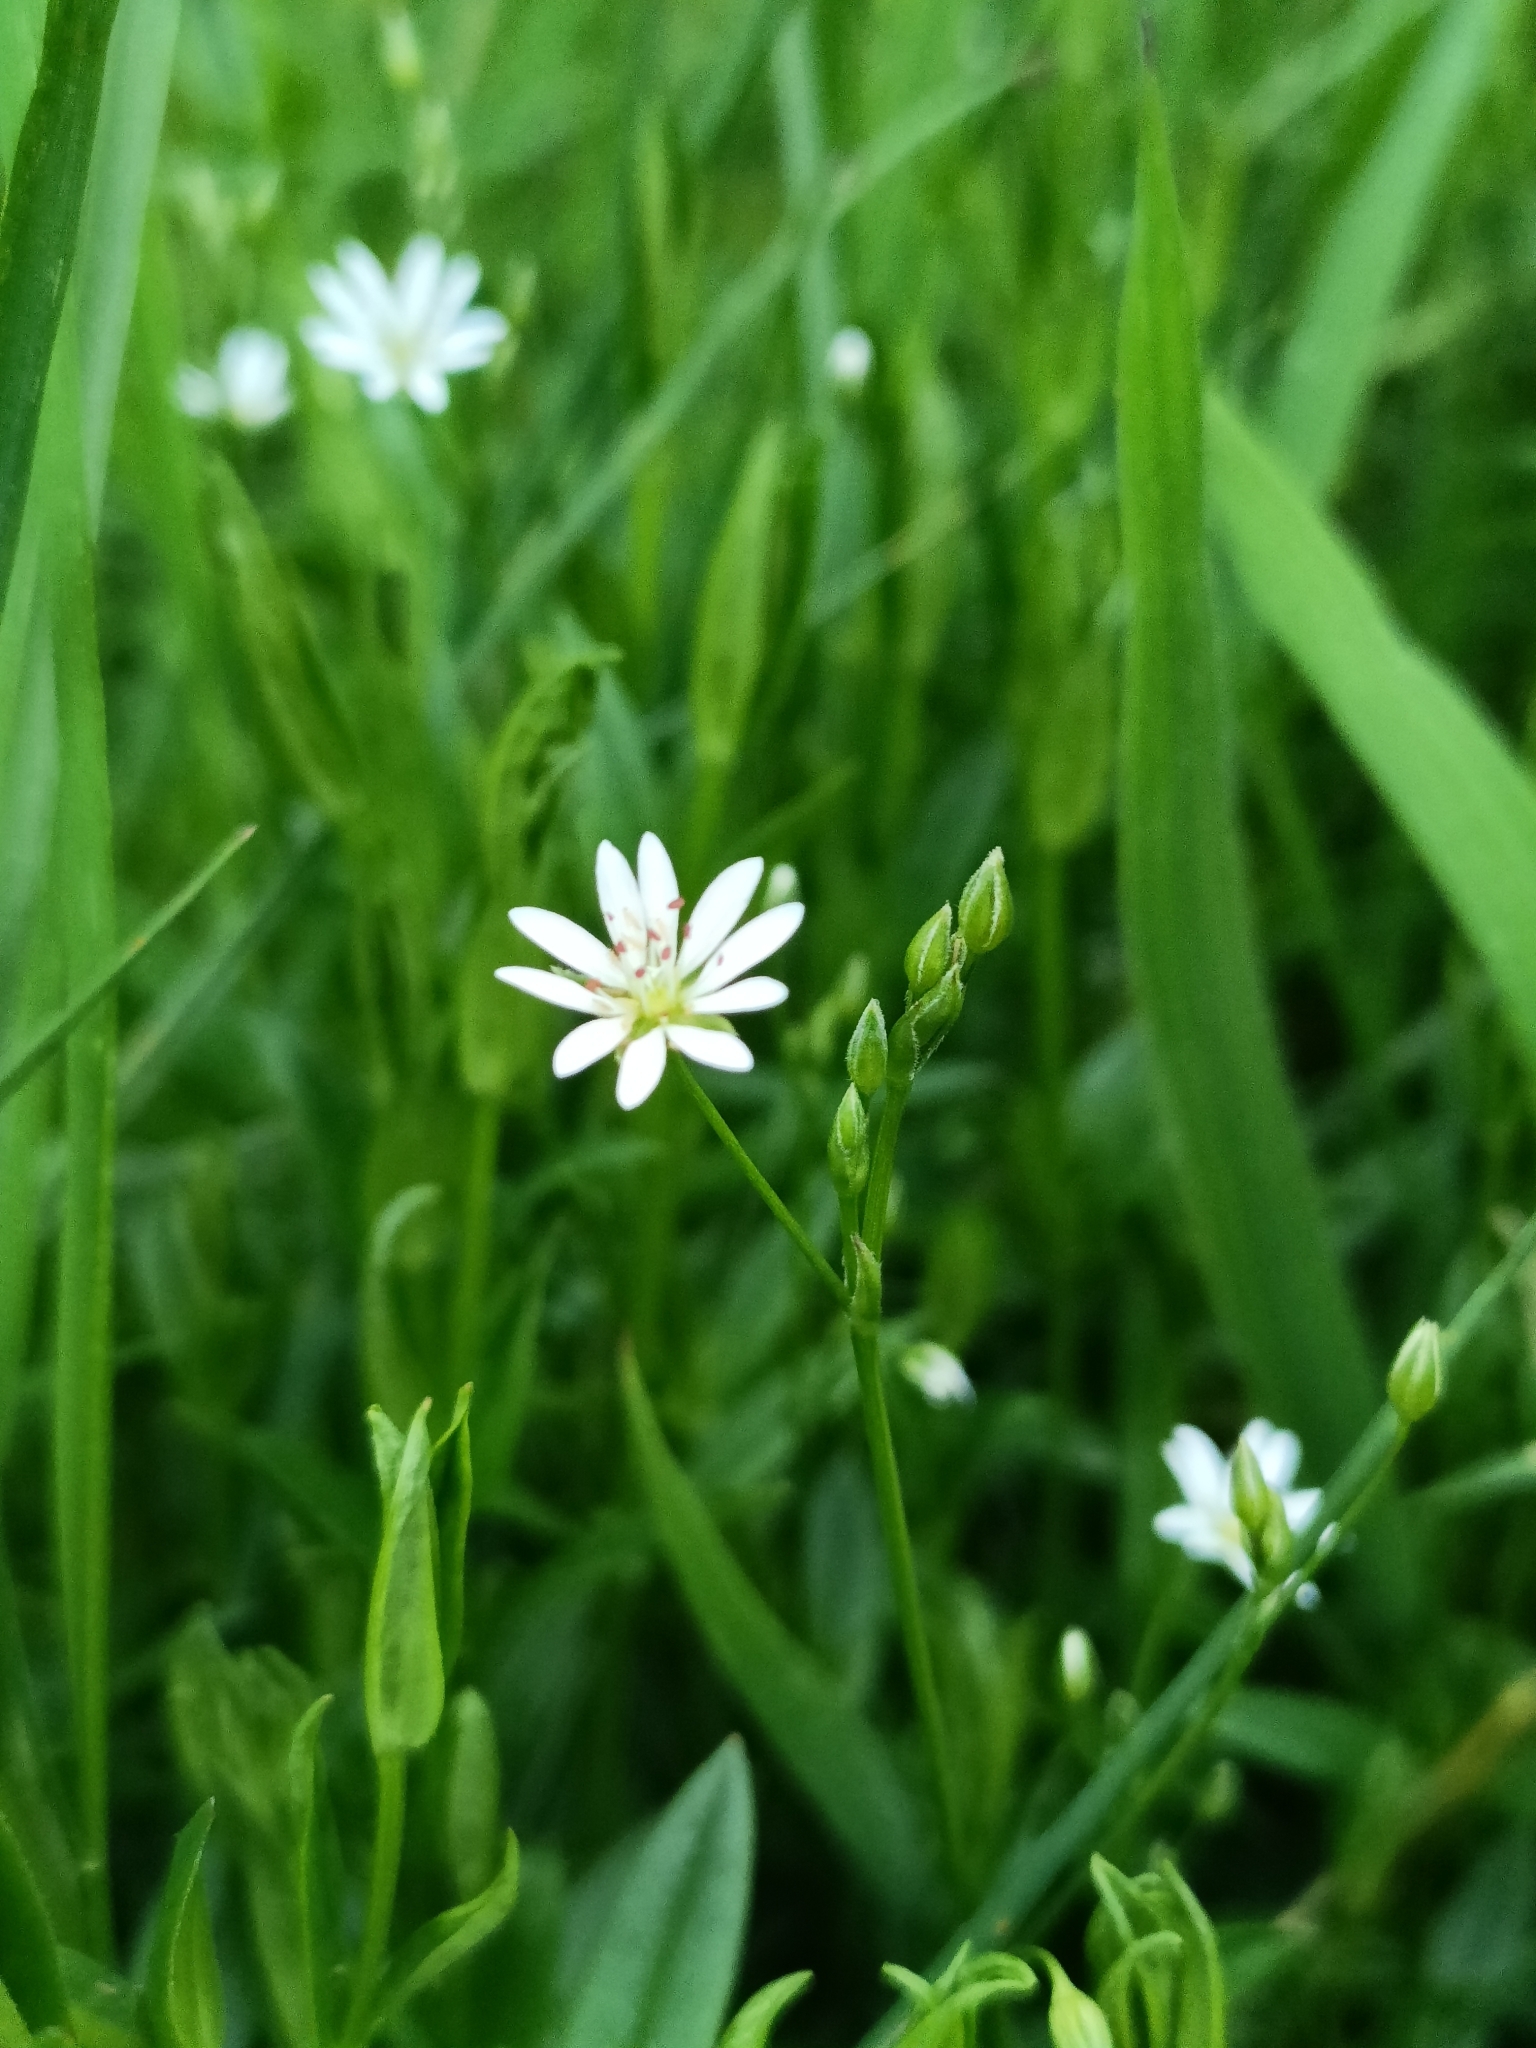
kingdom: Plantae
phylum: Tracheophyta
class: Magnoliopsida
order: Caryophyllales
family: Caryophyllaceae
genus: Stellaria
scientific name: Stellaria graminea
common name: Grass-like starwort
